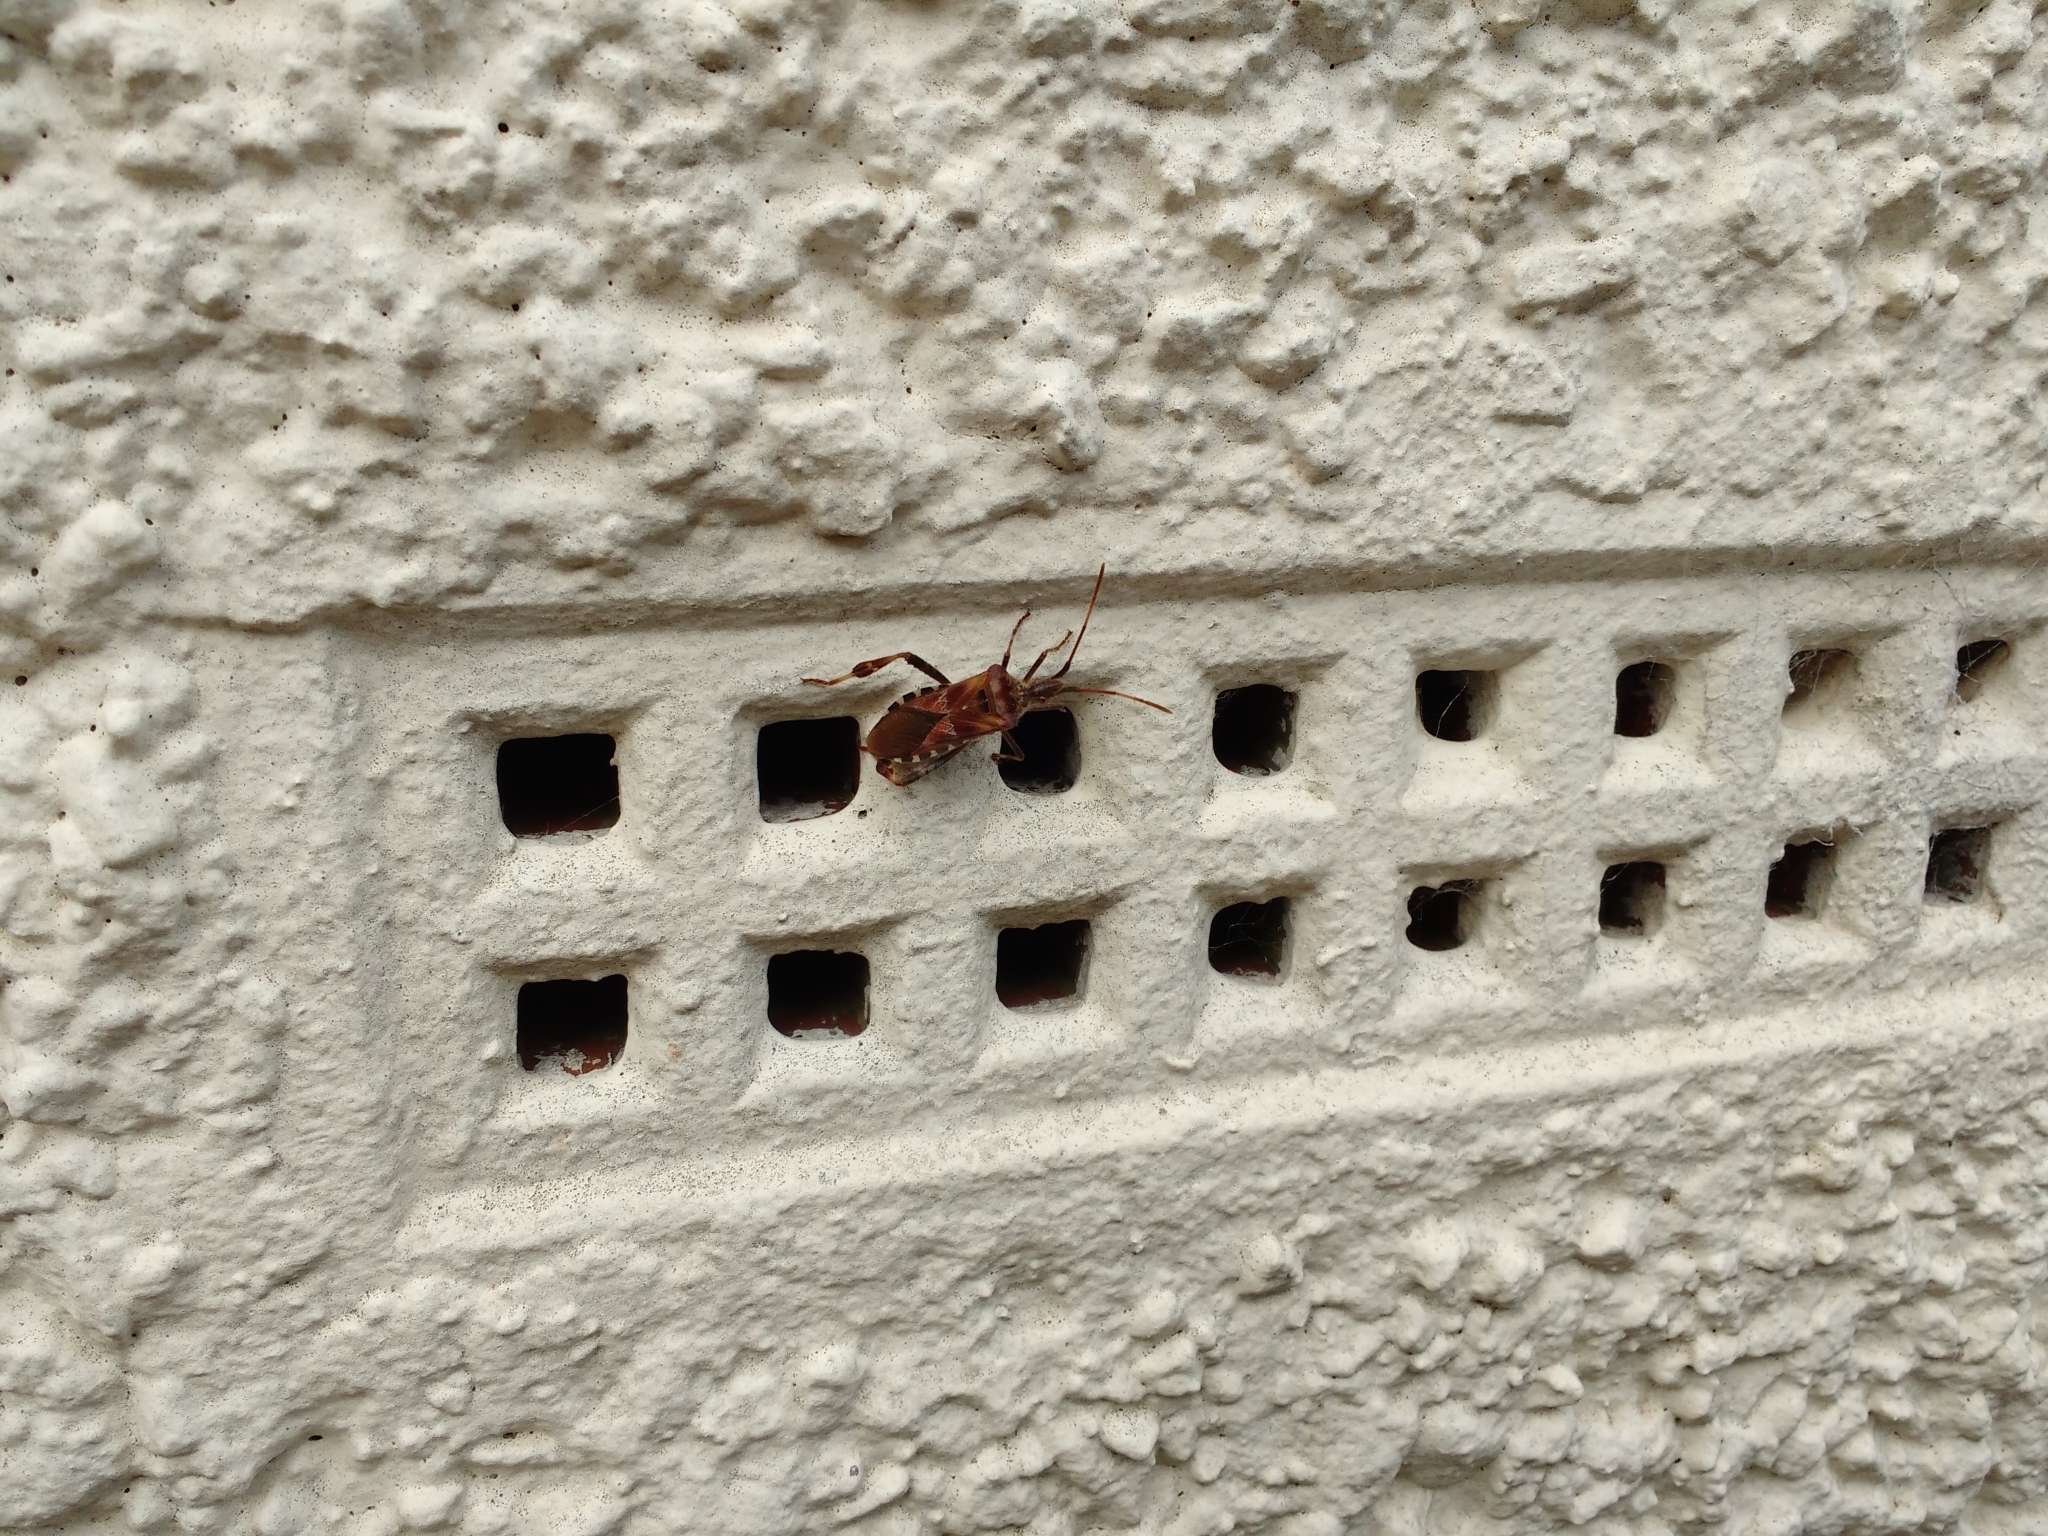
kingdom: Animalia
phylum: Arthropoda
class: Insecta
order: Hemiptera
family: Coreidae
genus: Leptoglossus
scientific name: Leptoglossus occidentalis
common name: Western conifer-seed bug
